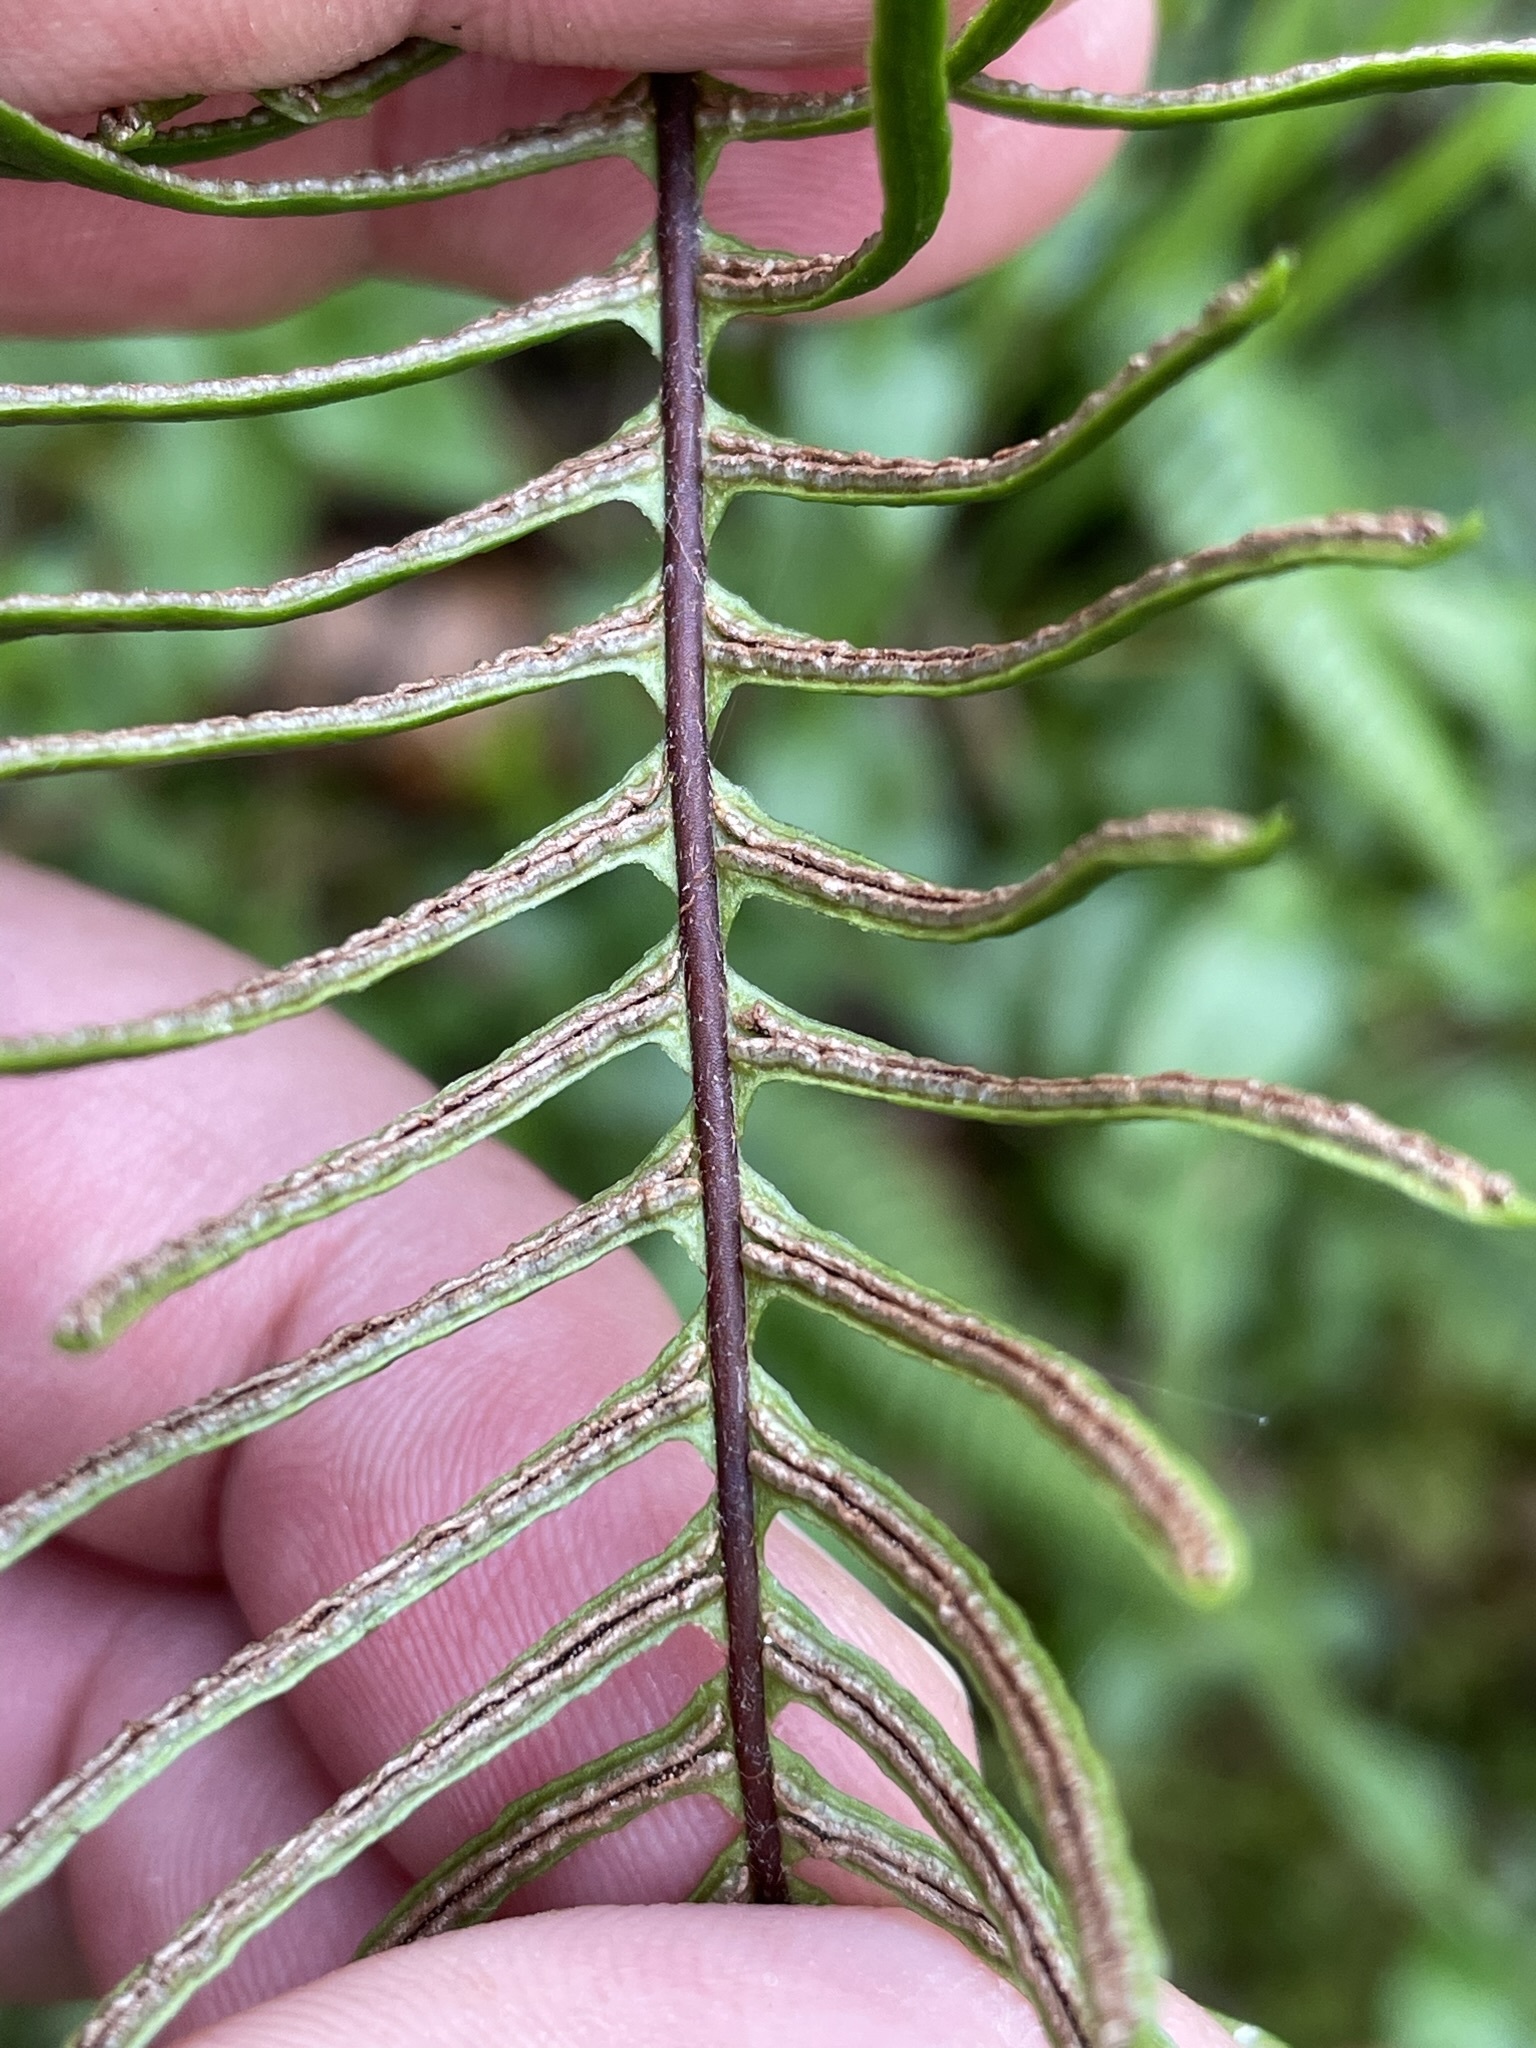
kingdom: Plantae
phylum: Tracheophyta
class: Polypodiopsida
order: Polypodiales
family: Blechnaceae
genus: Struthiopteris
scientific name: Struthiopteris spicant
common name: Deer fern
